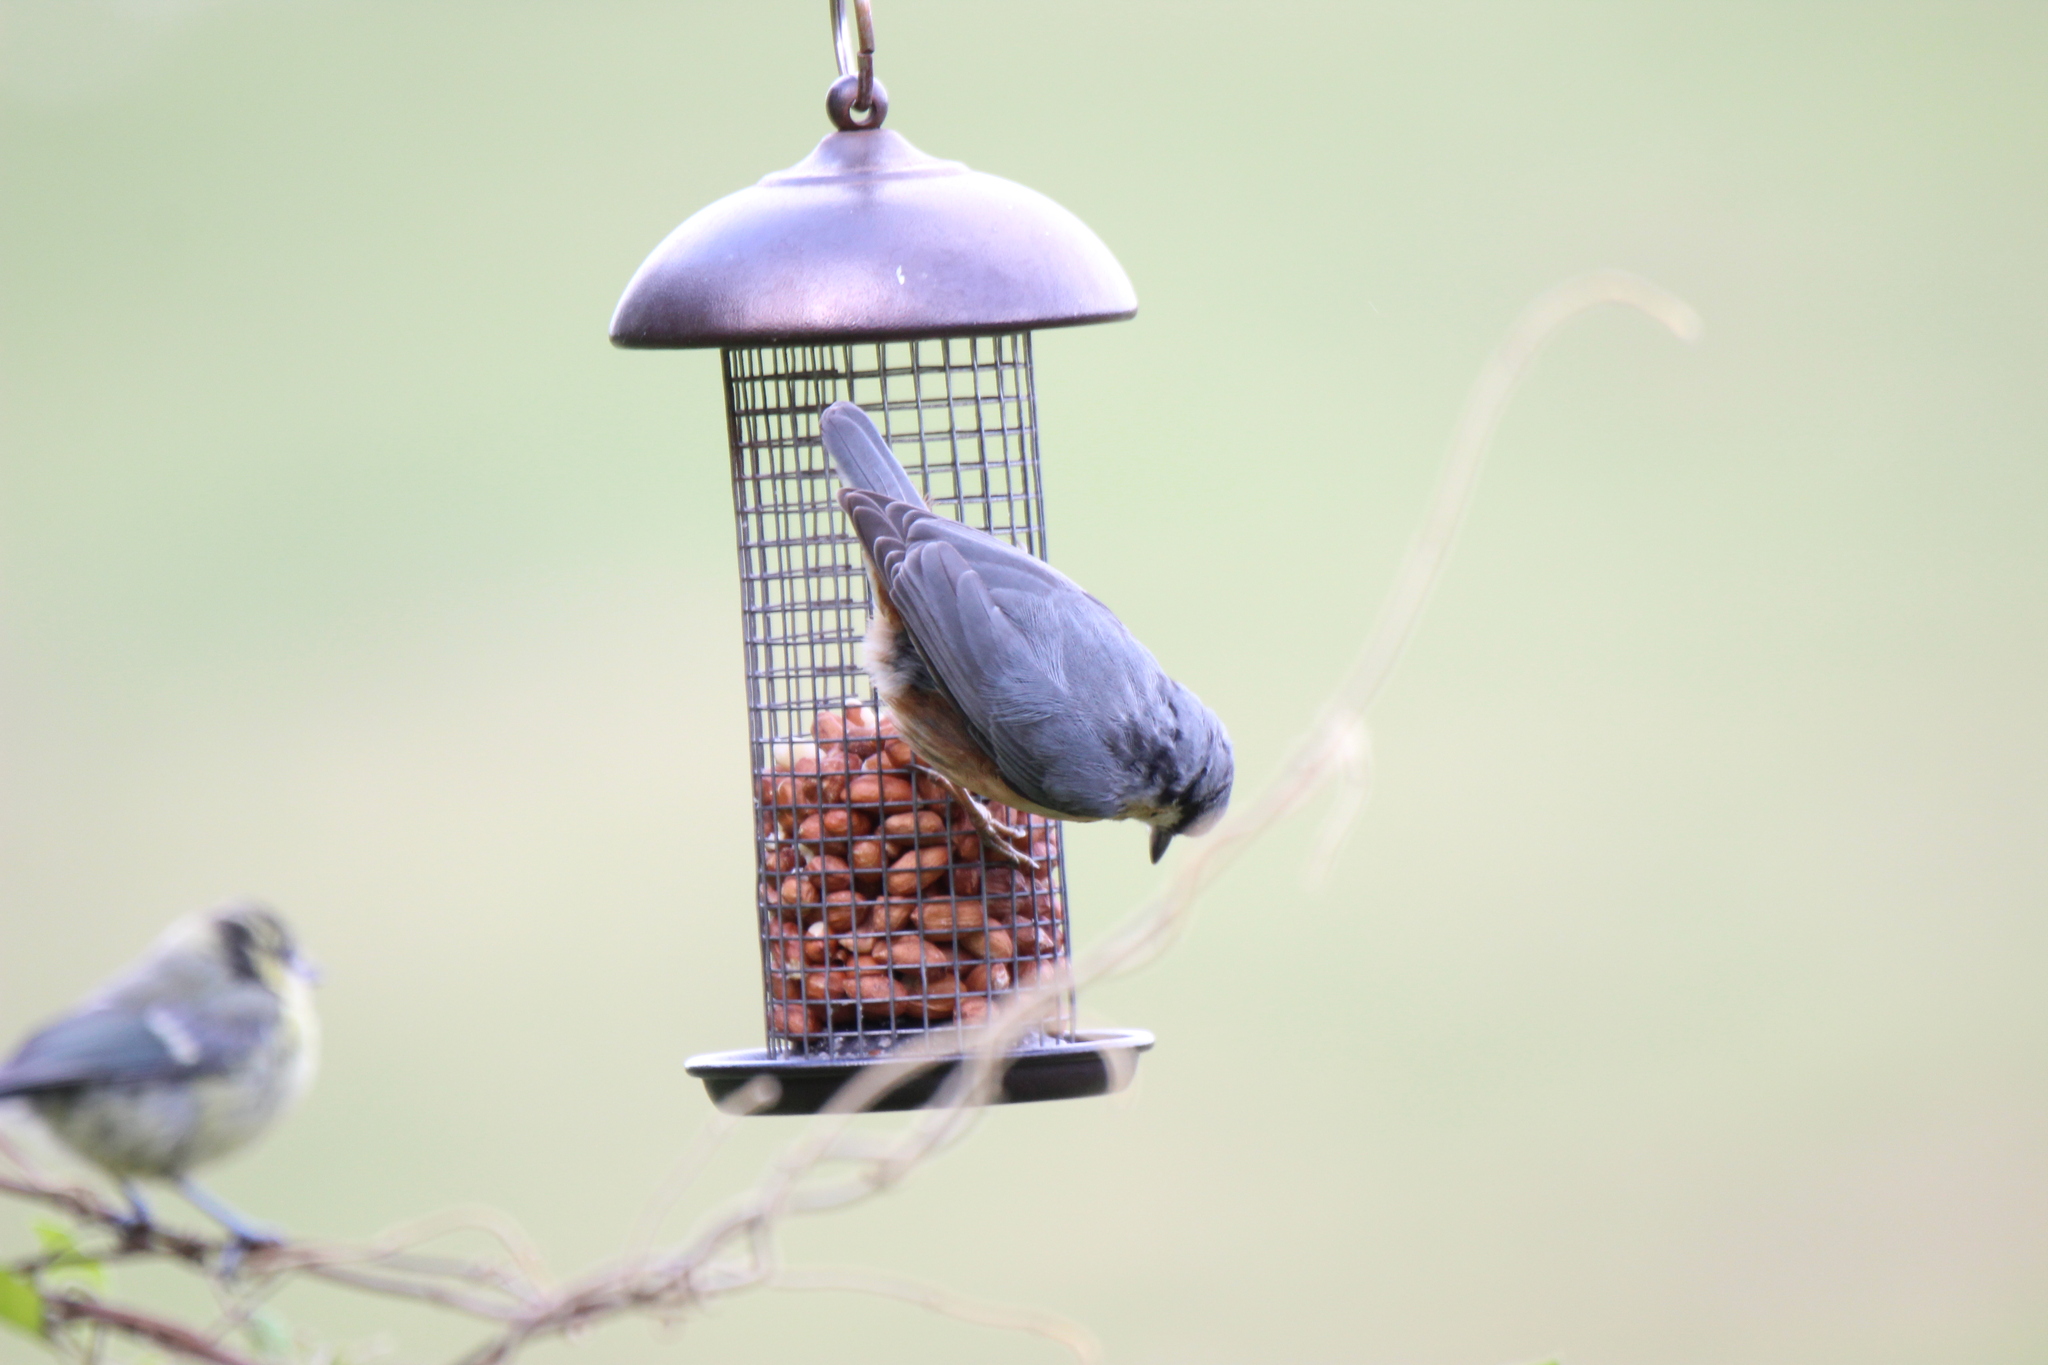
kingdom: Animalia
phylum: Chordata
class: Aves
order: Passeriformes
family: Sittidae
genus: Sitta
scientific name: Sitta europaea
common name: Eurasian nuthatch
